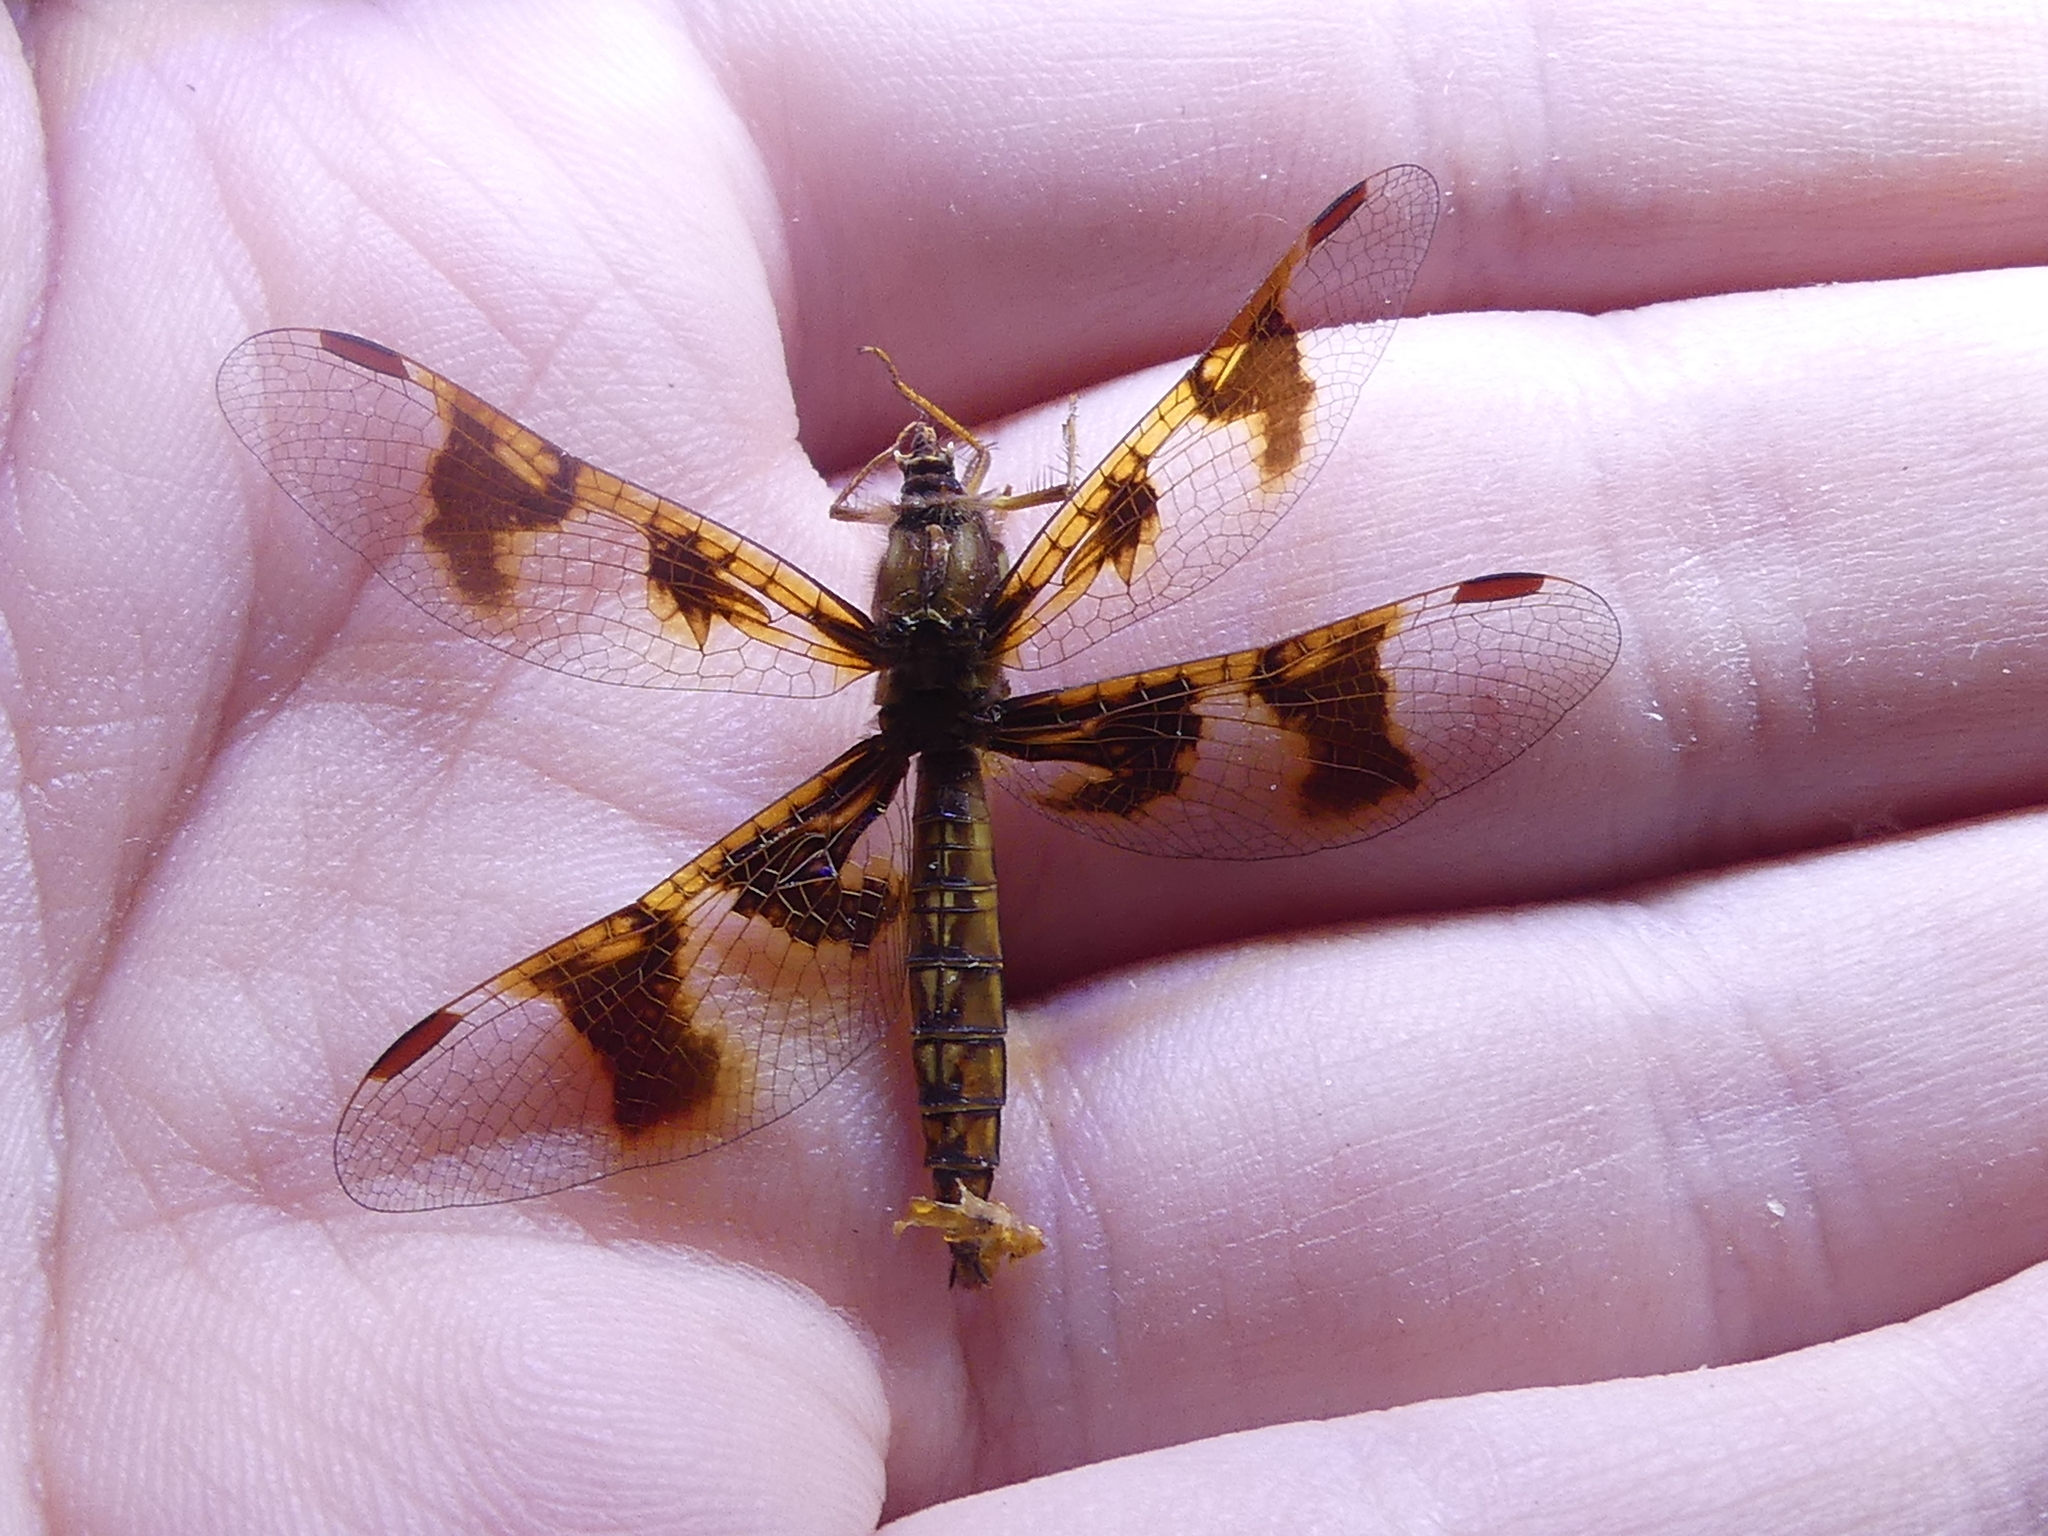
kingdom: Animalia
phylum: Arthropoda
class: Insecta
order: Odonata
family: Libellulidae
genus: Perithemis
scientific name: Perithemis tenera
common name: Eastern amberwing
